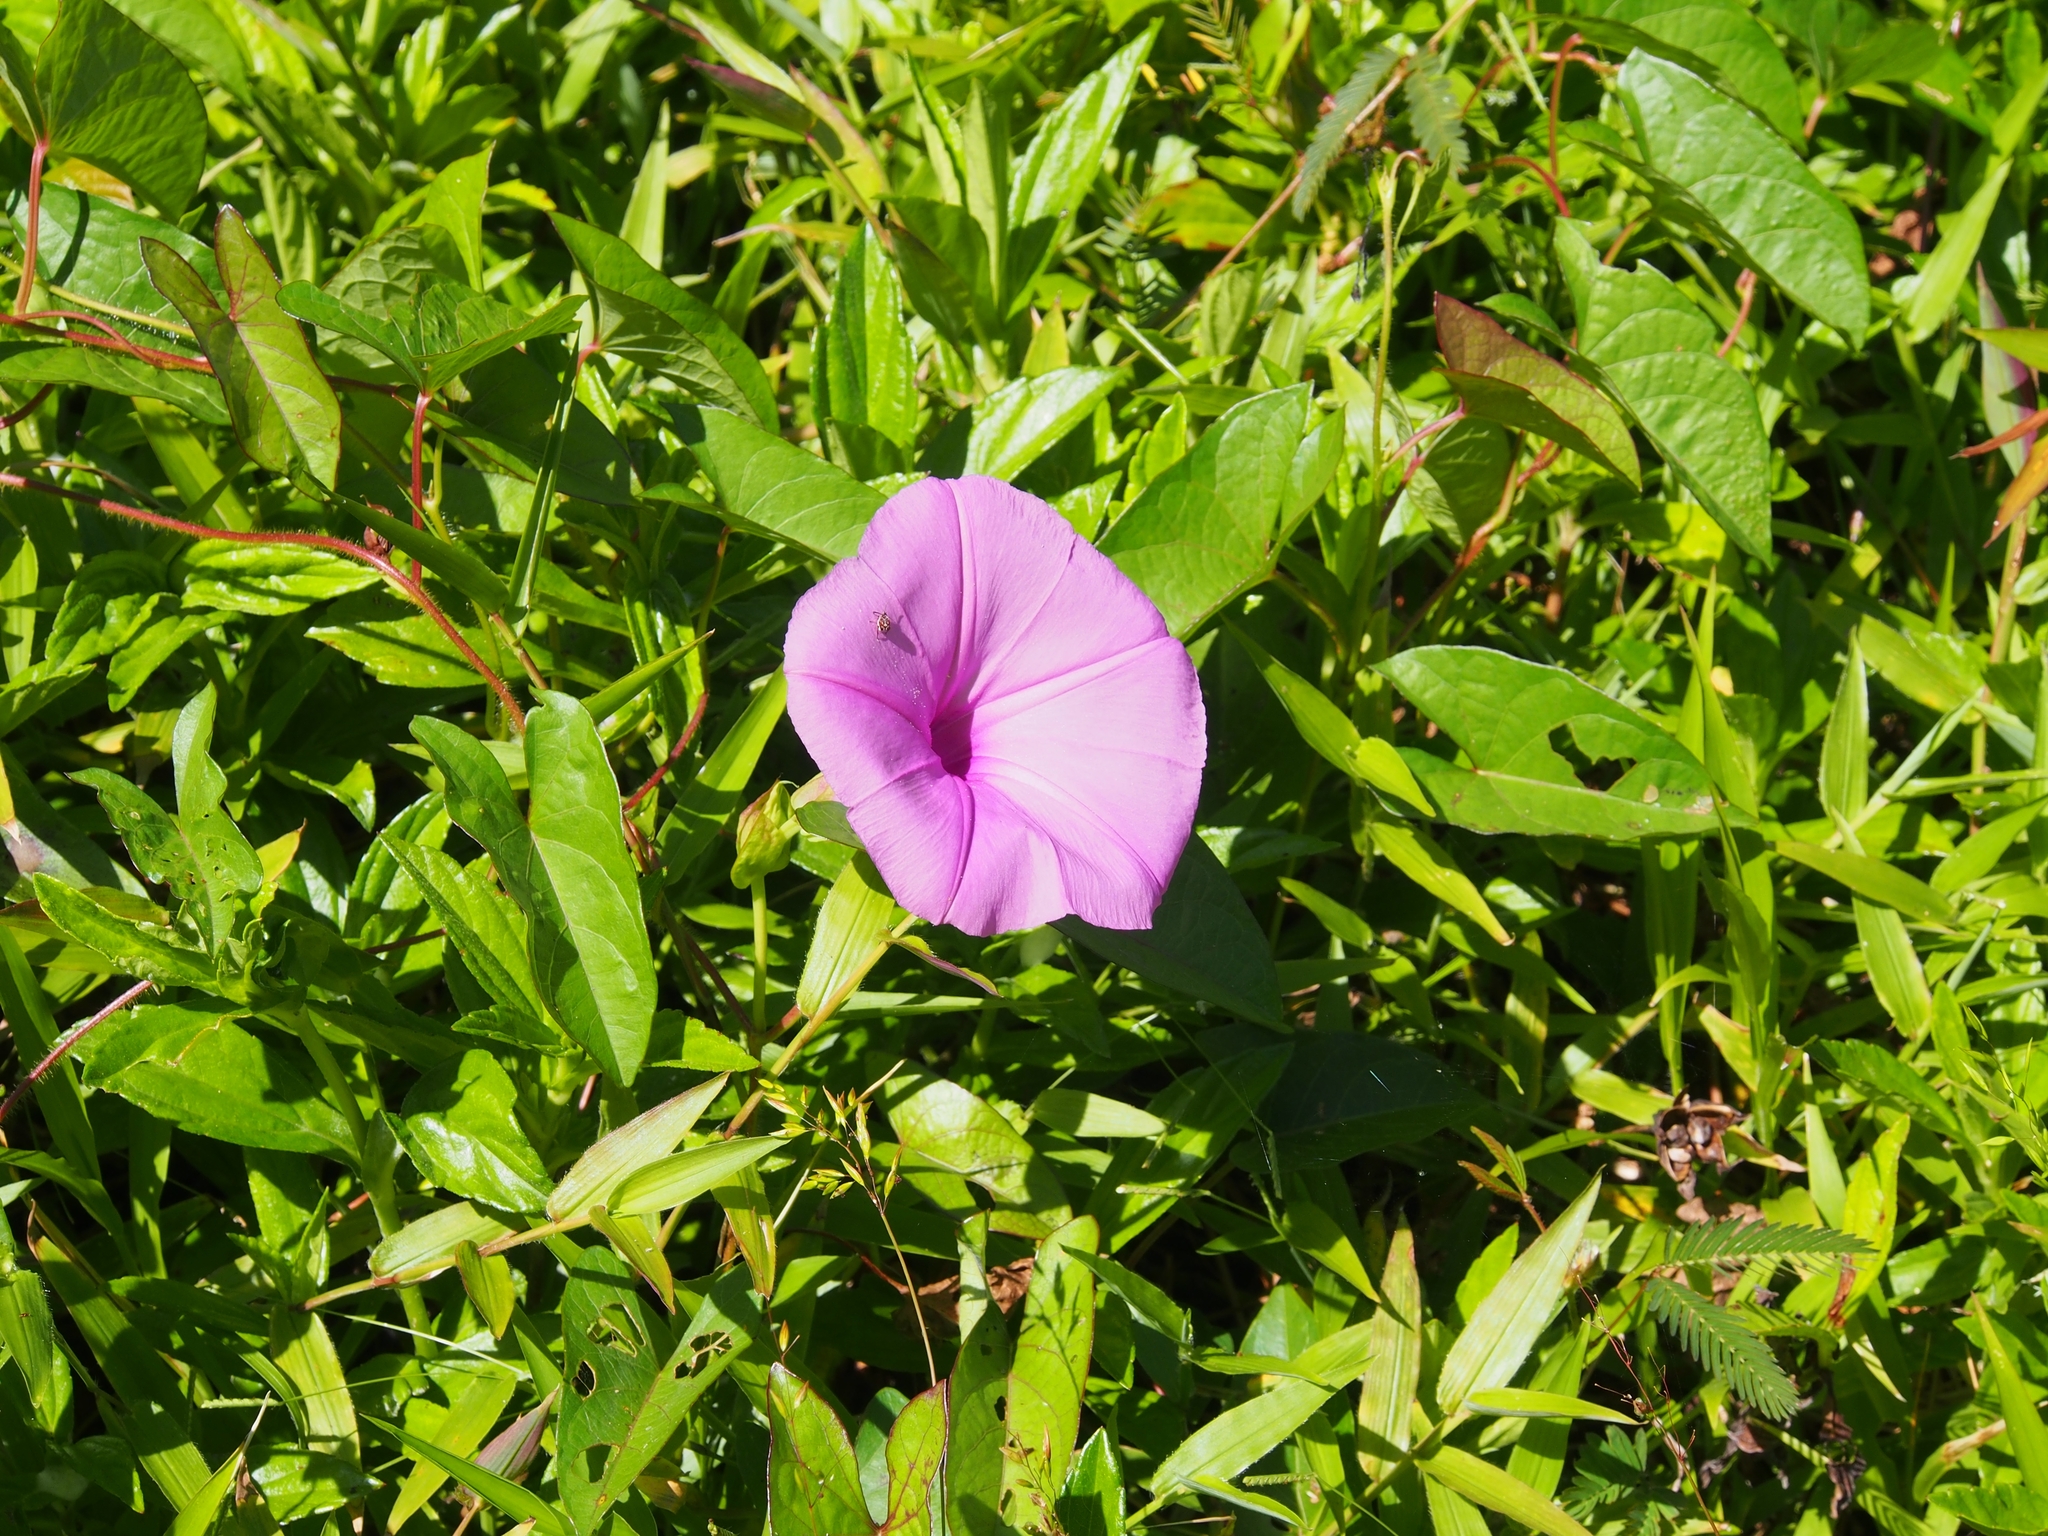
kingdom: Plantae
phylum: Tracheophyta
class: Magnoliopsida
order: Solanales
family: Convolvulaceae
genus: Ipomoea
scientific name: Ipomoea setifera
